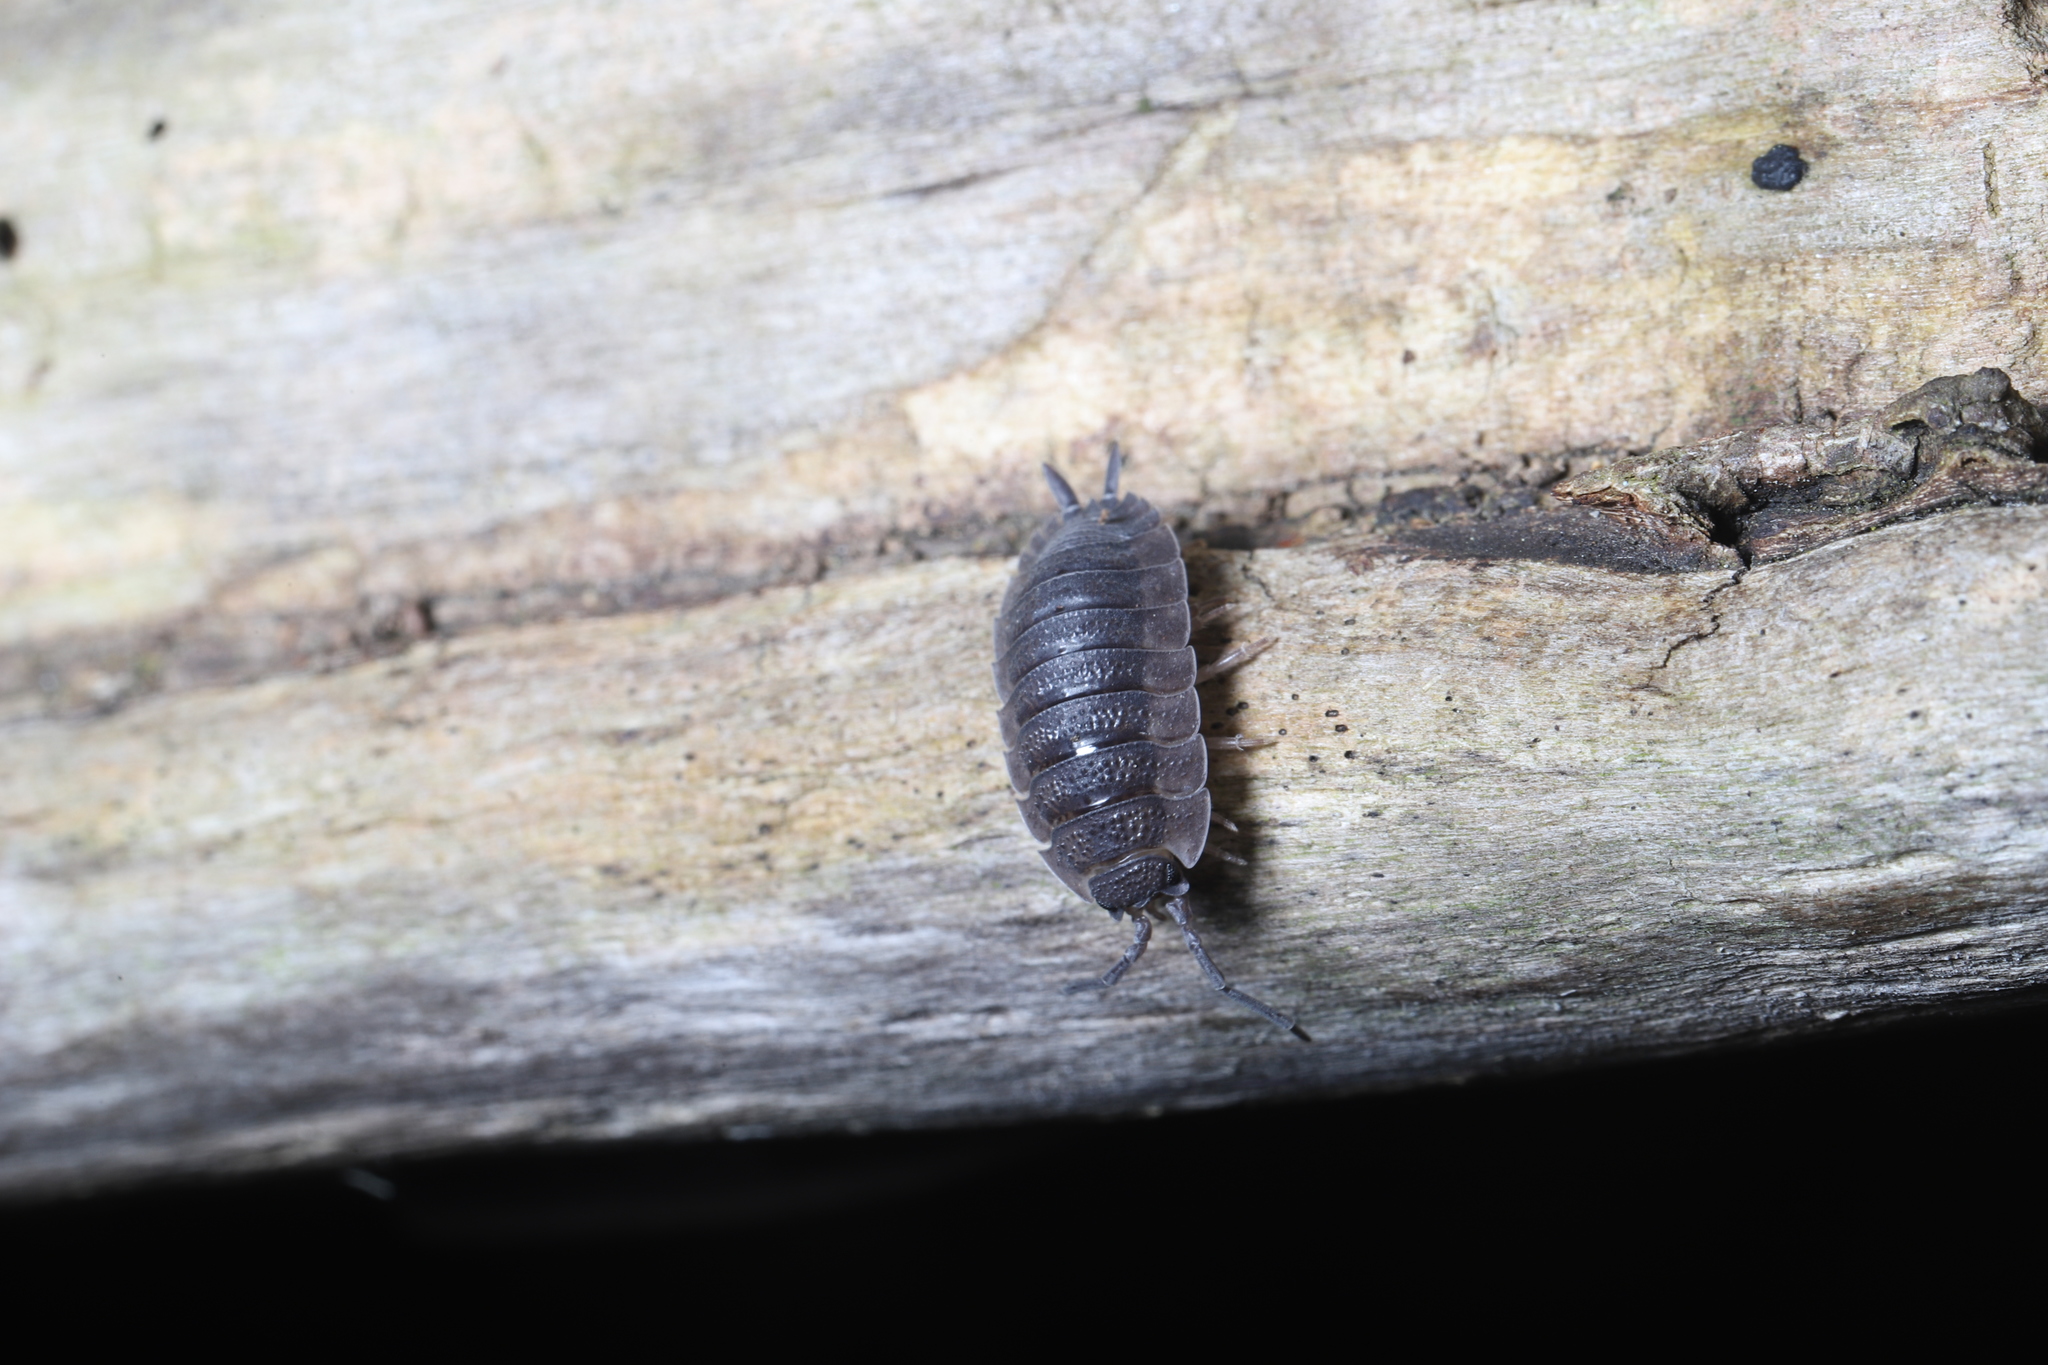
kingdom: Animalia
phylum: Arthropoda
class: Malacostraca
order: Isopoda
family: Porcellionidae
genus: Porcellio
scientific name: Porcellio scaber
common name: Common rough woodlouse
